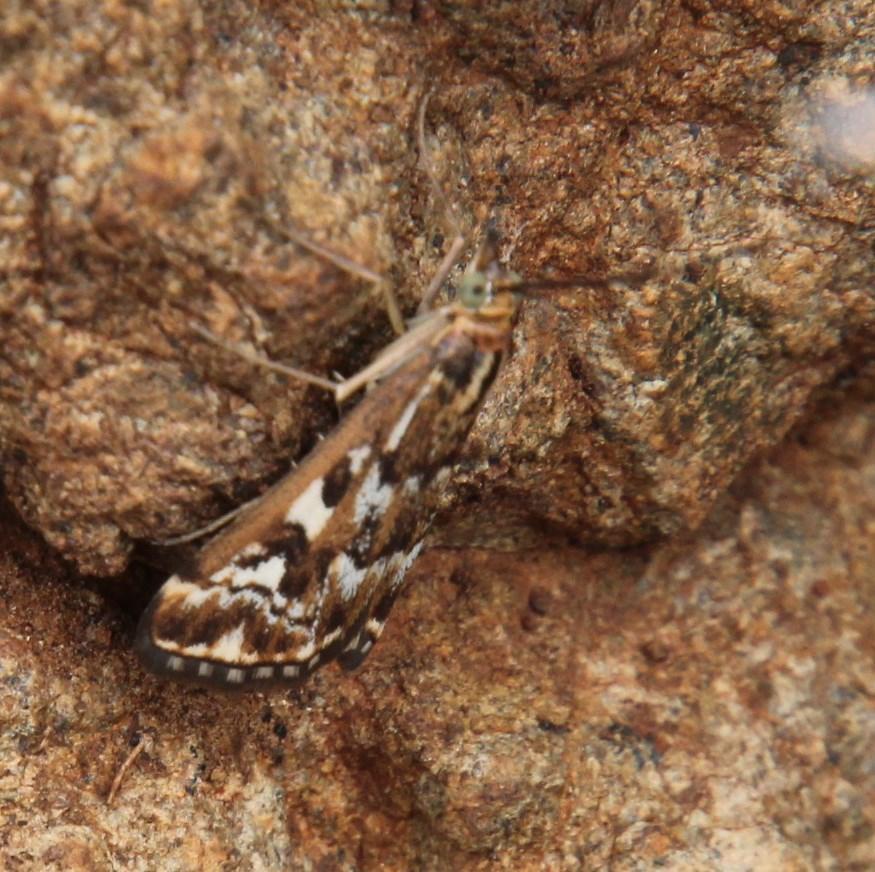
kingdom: Animalia
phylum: Arthropoda
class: Insecta
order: Lepidoptera
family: Crambidae
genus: Loxostege
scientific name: Loxostege frustalis
